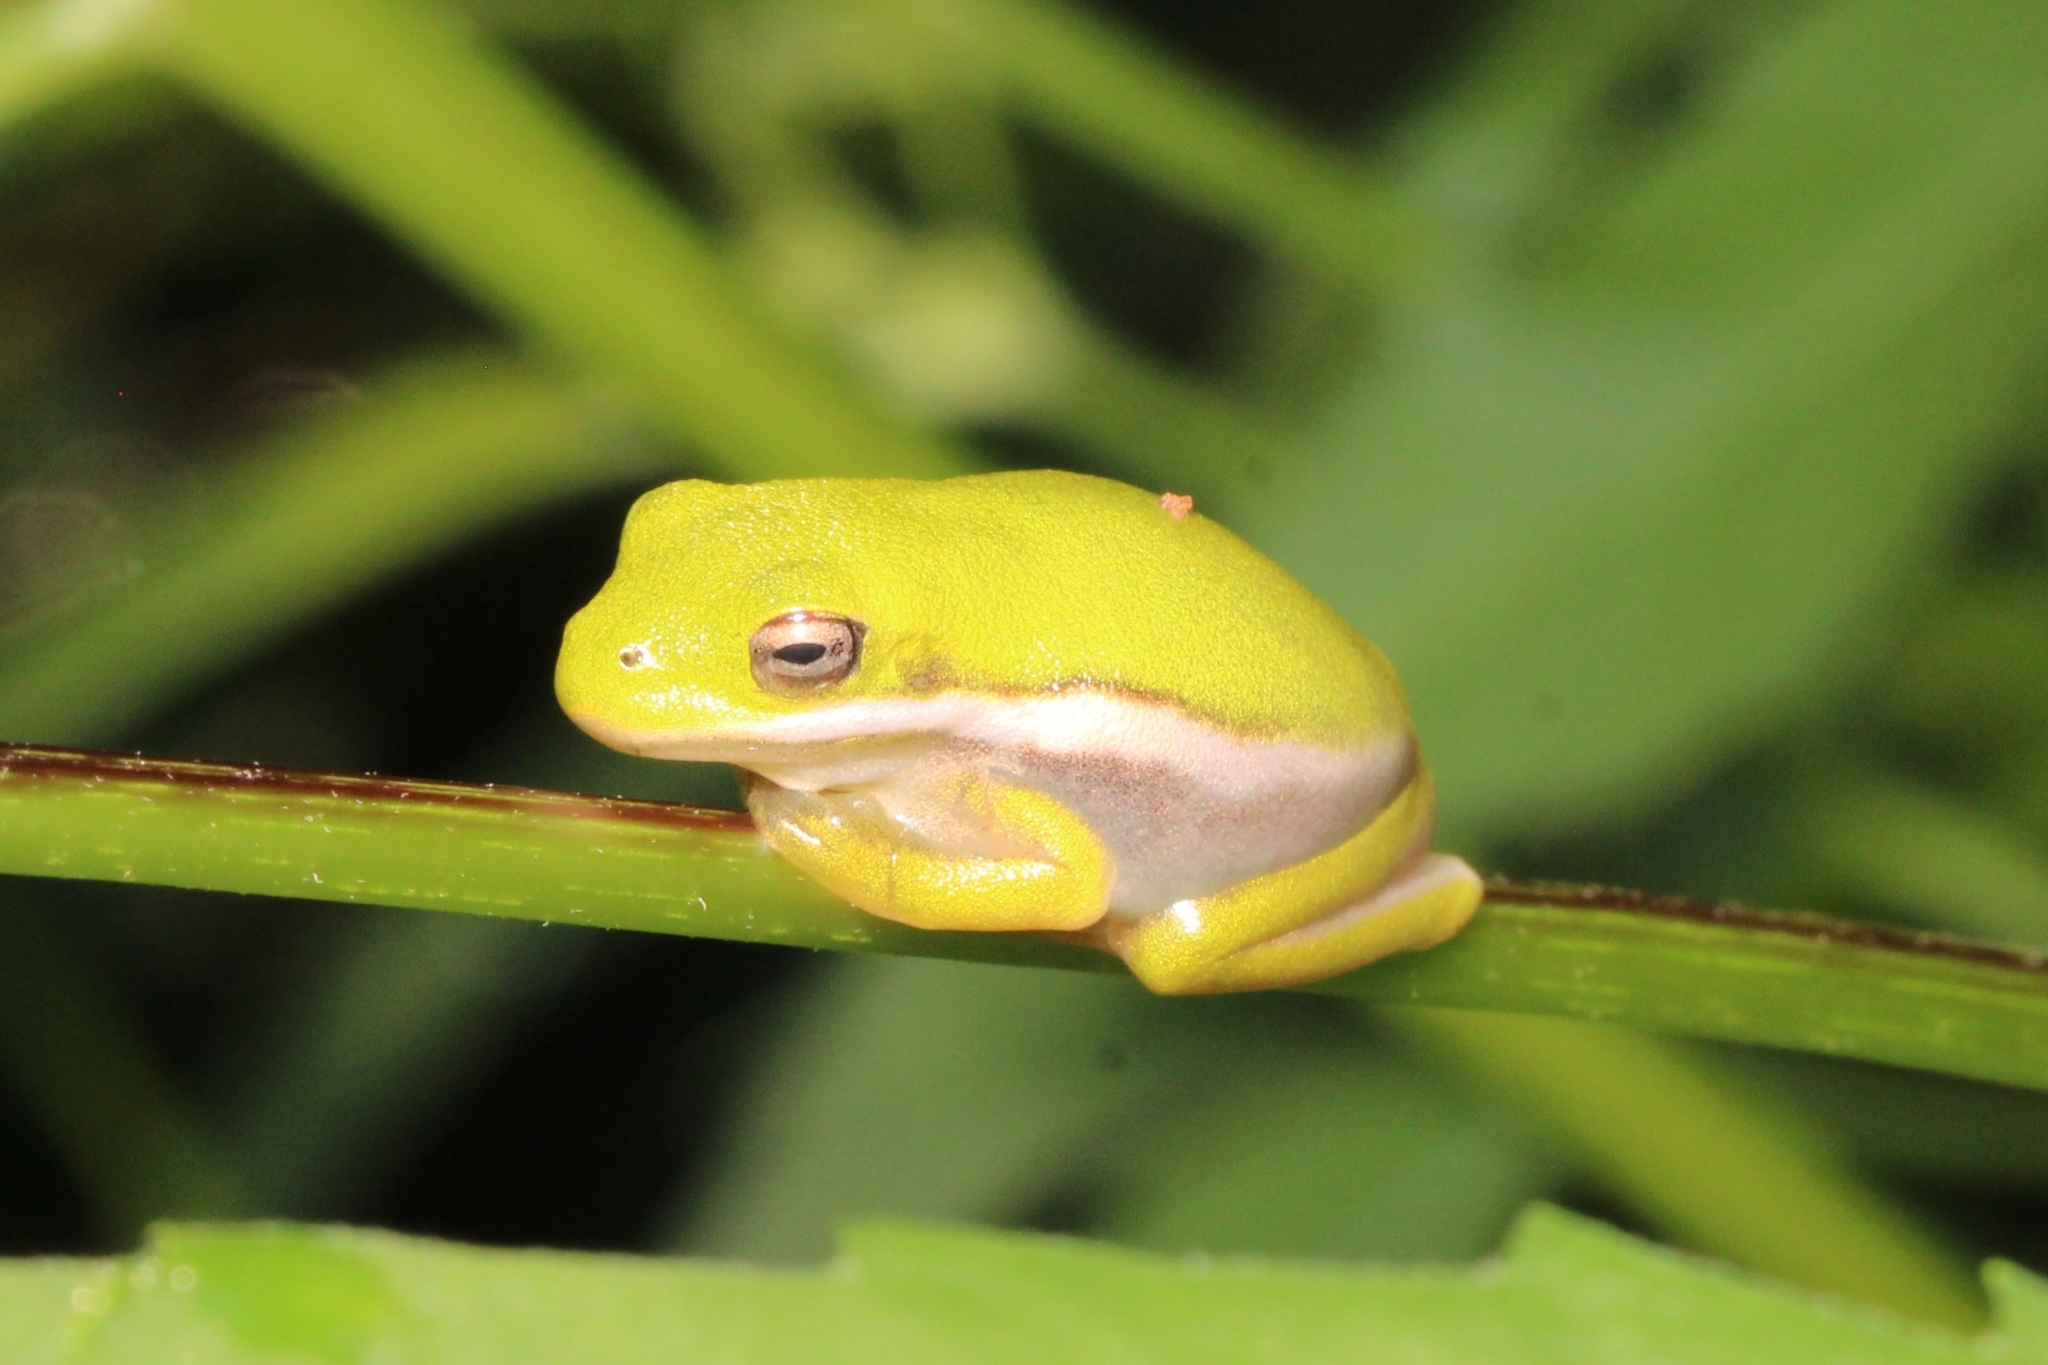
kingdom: Animalia
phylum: Chordata
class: Amphibia
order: Anura
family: Hylidae
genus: Dryophytes
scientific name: Dryophytes cinereus
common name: Green treefrog
